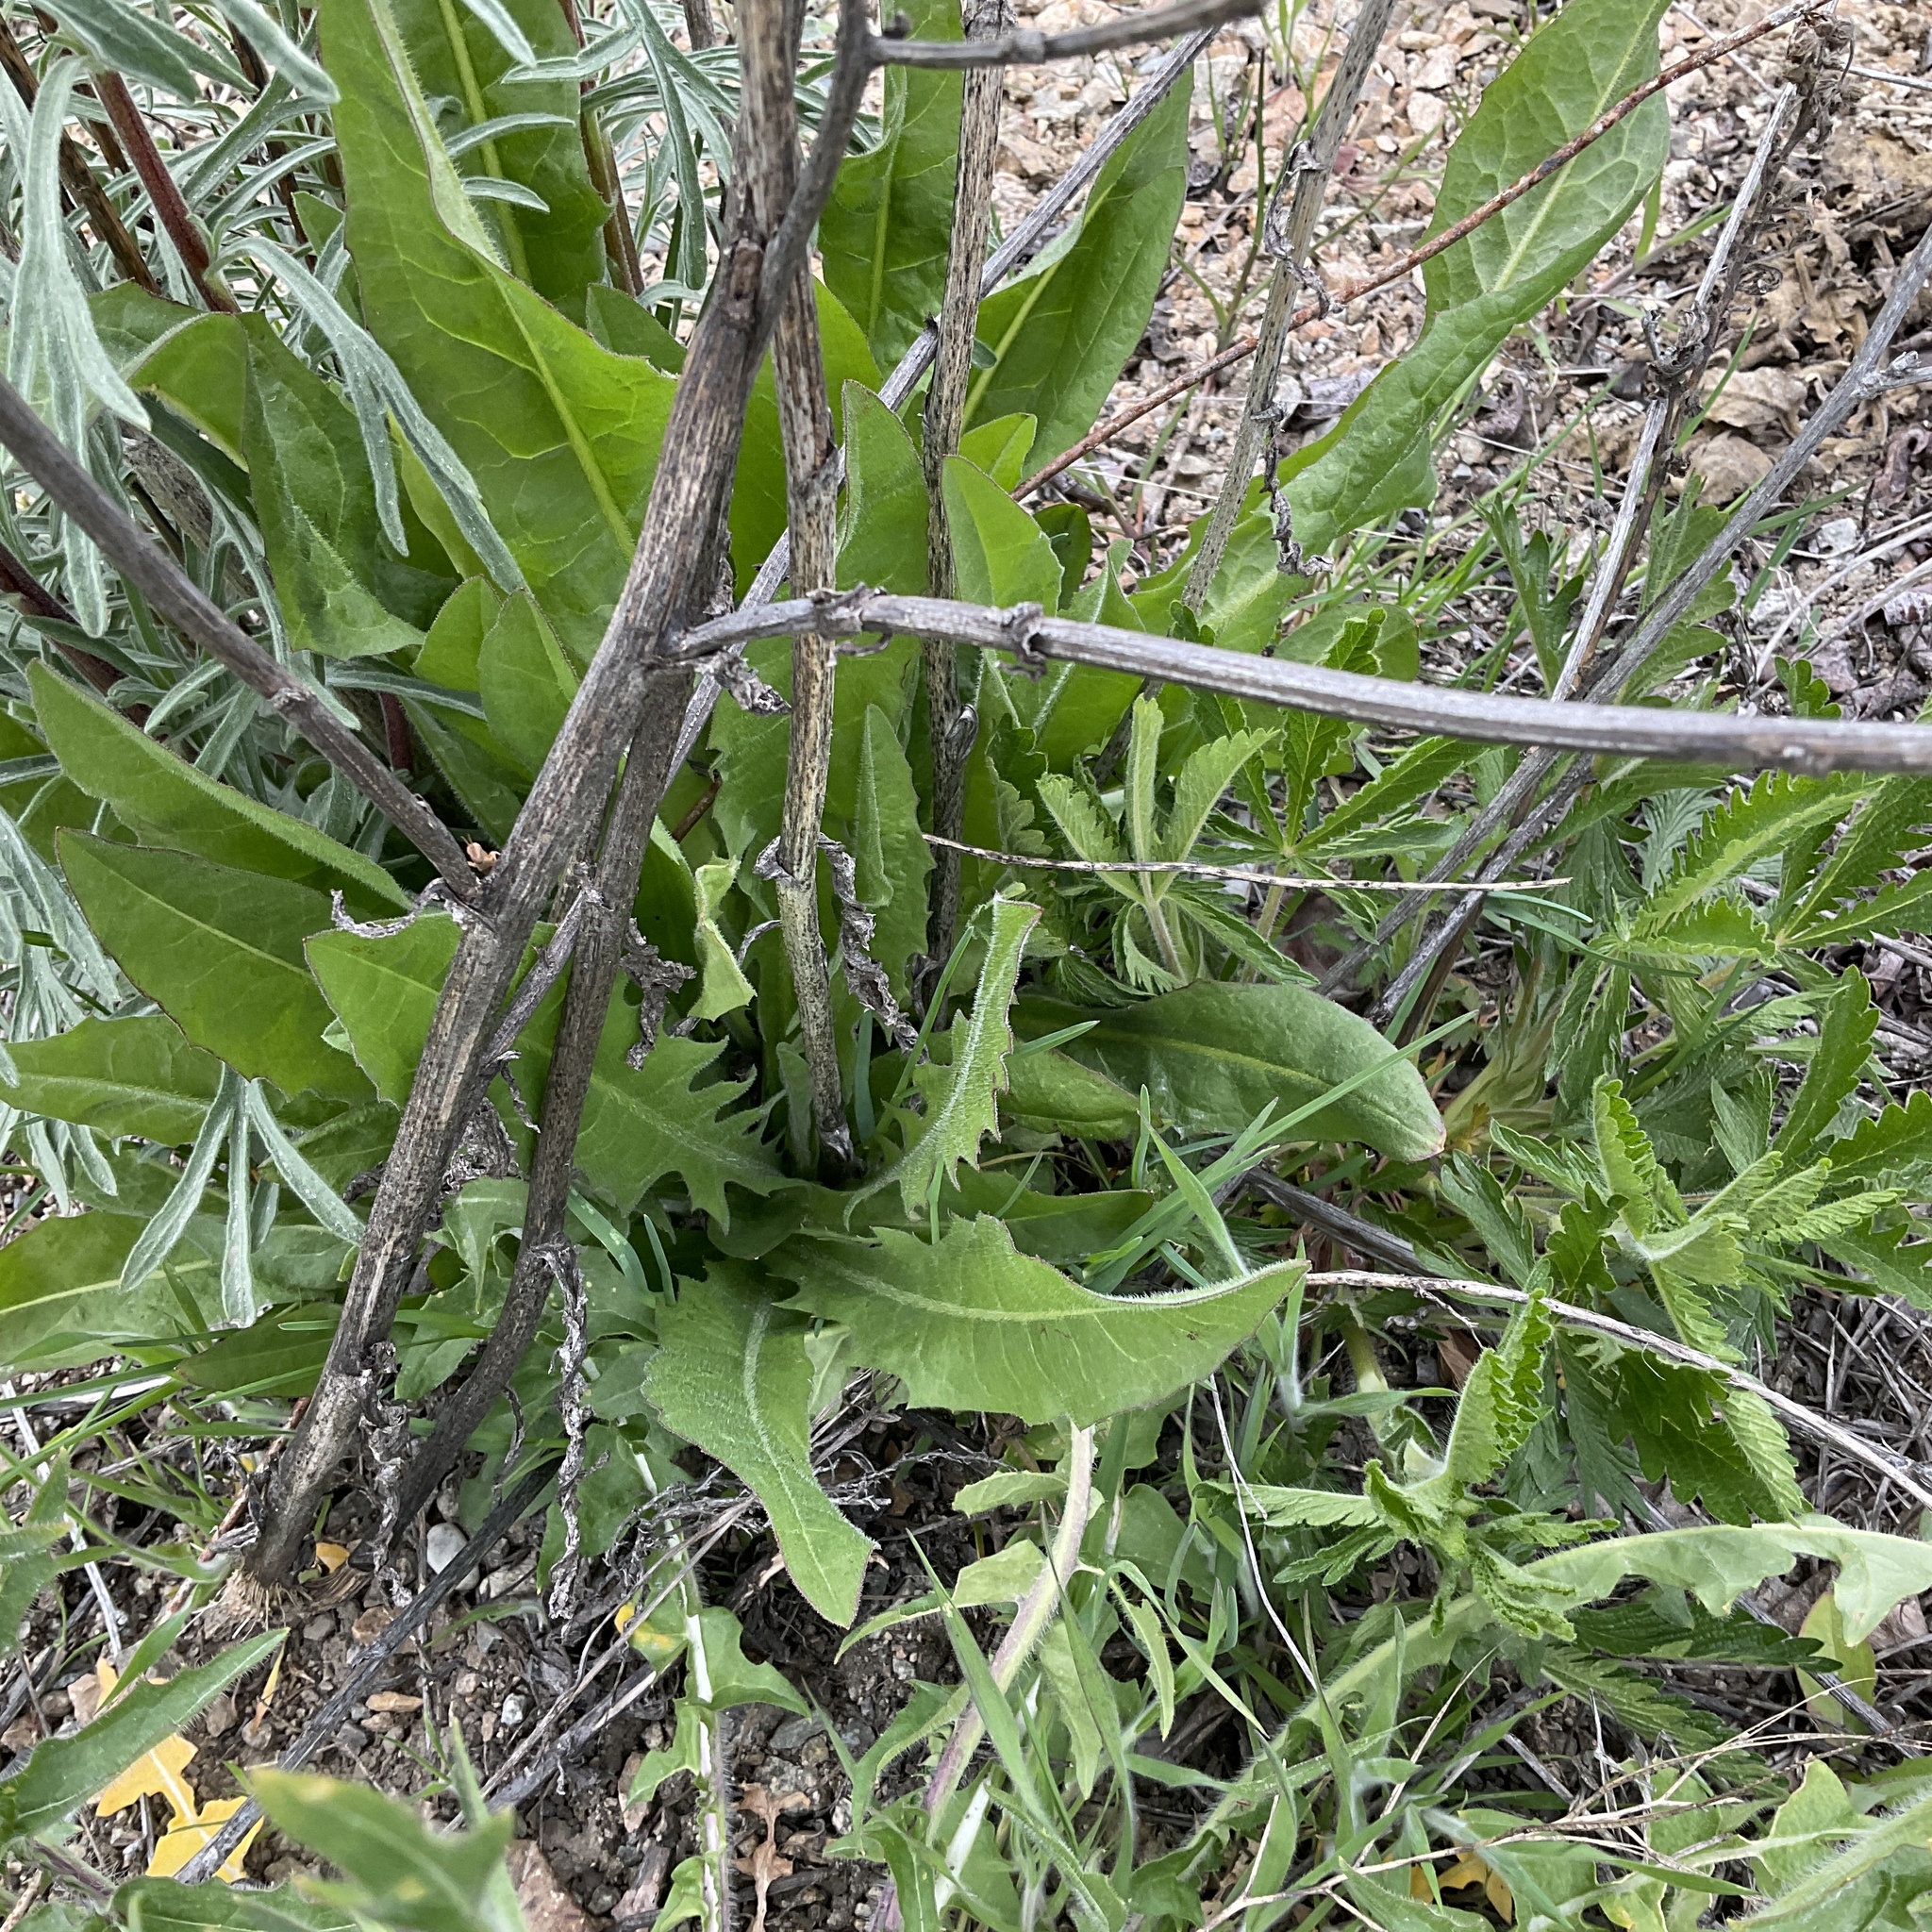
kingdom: Plantae
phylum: Tracheophyta
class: Magnoliopsida
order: Asterales
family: Asteraceae
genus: Chondrilla
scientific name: Chondrilla juncea
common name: Skeleton weed
